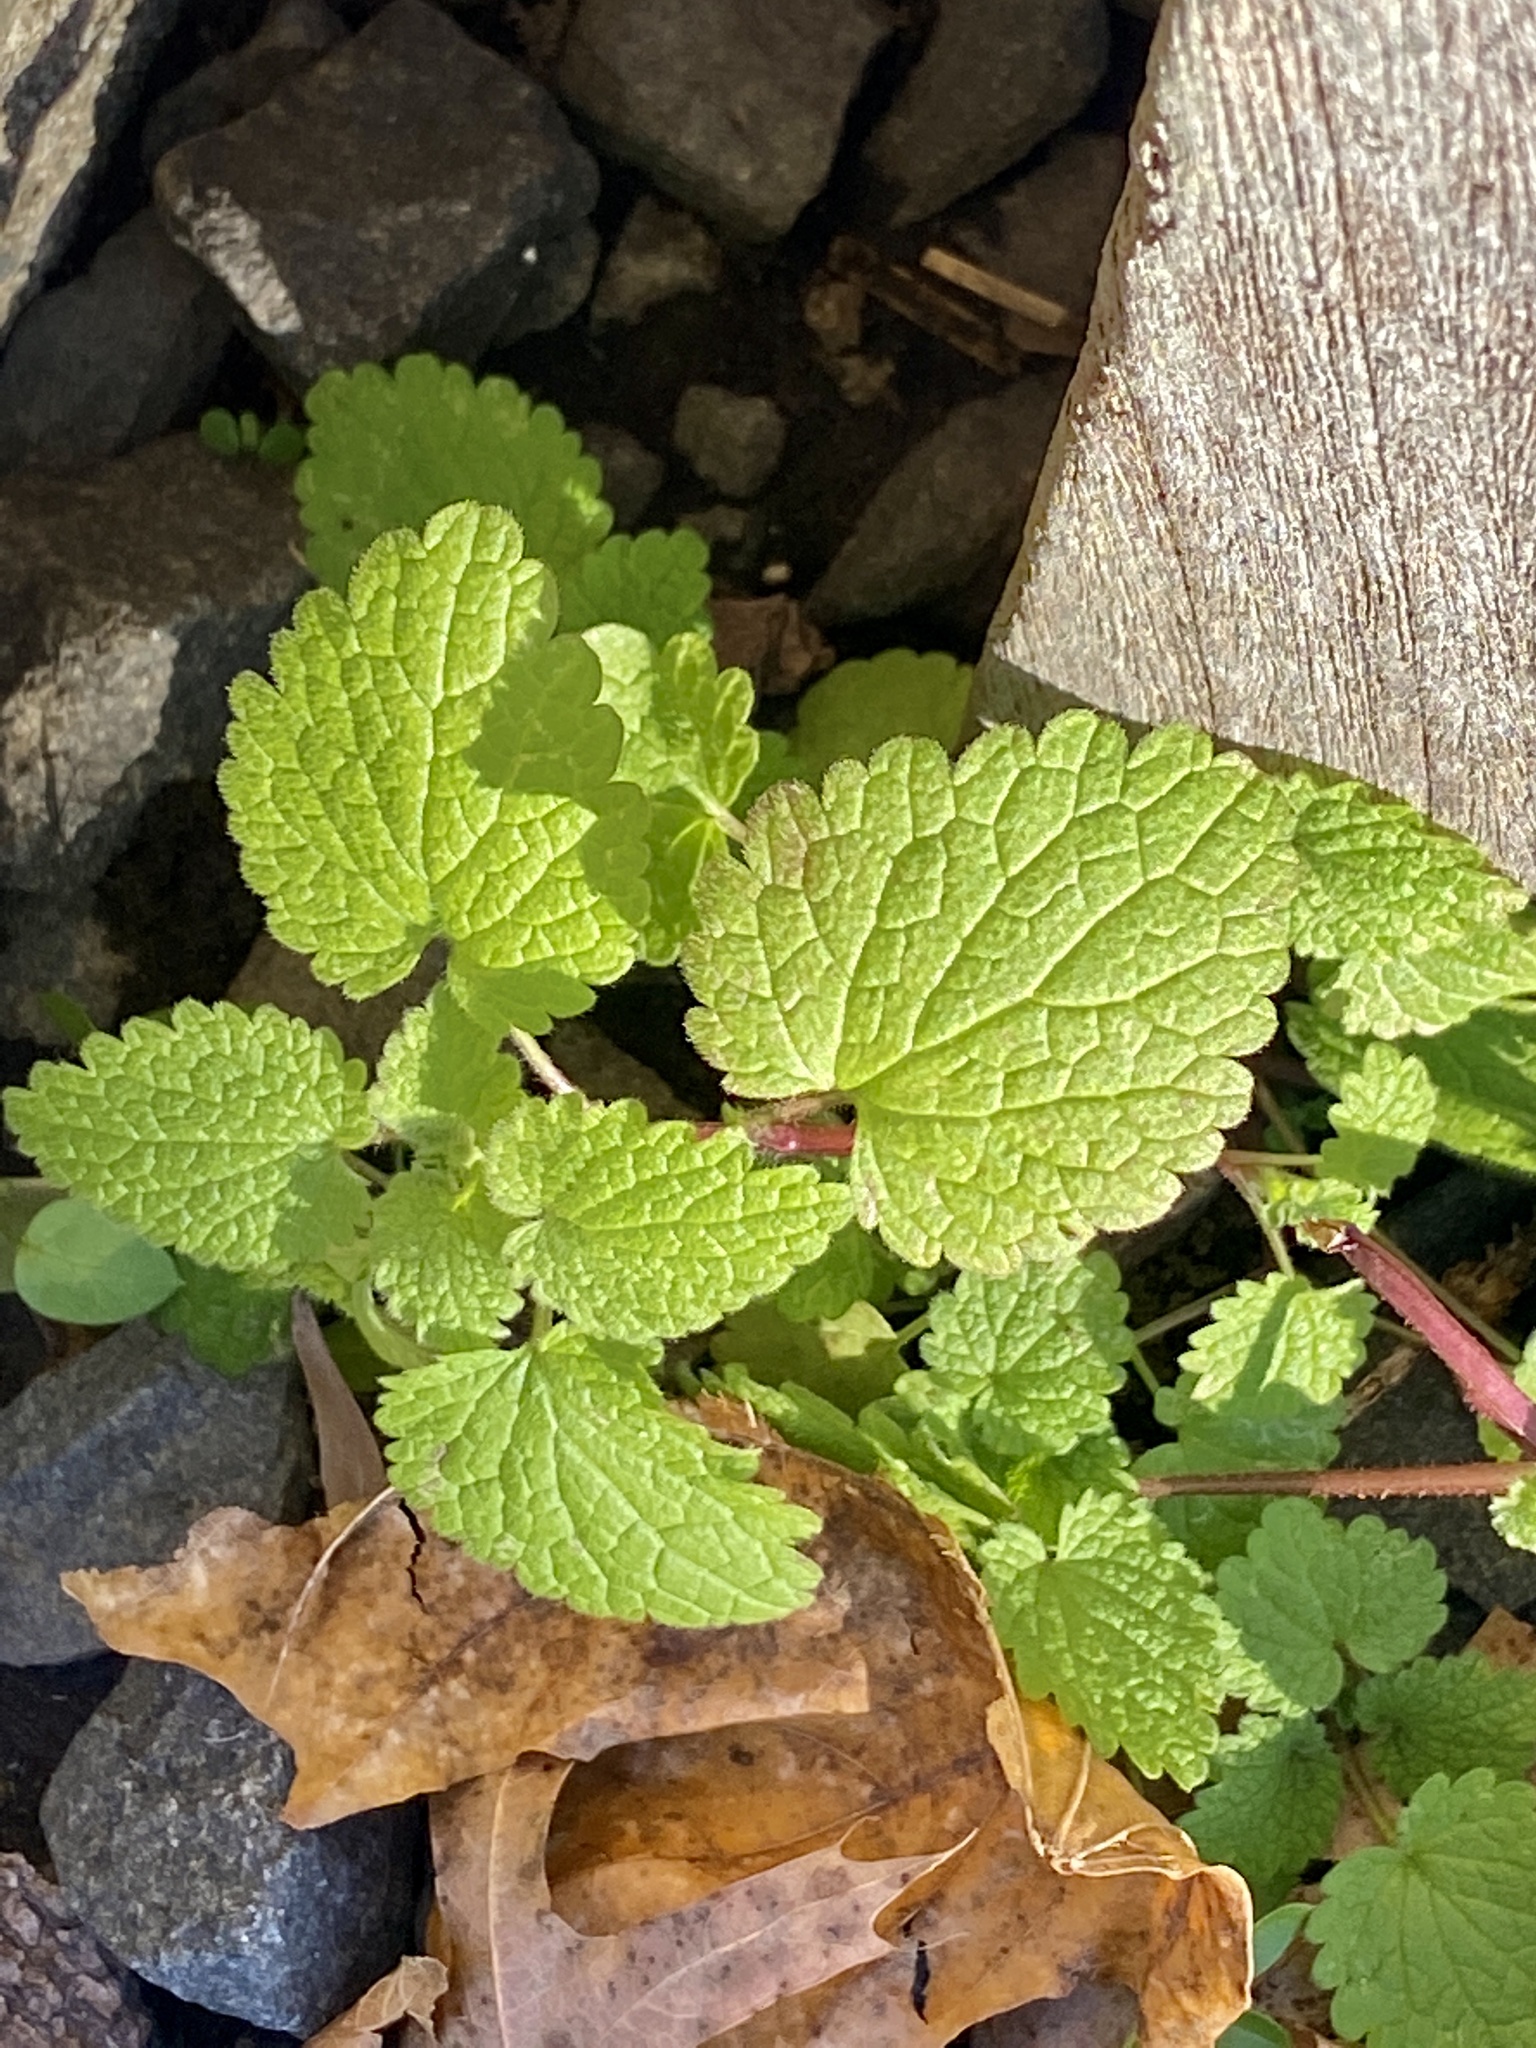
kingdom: Plantae
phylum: Tracheophyta
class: Magnoliopsida
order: Lamiales
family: Lamiaceae
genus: Lamium
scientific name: Lamium purpureum
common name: Red dead-nettle
